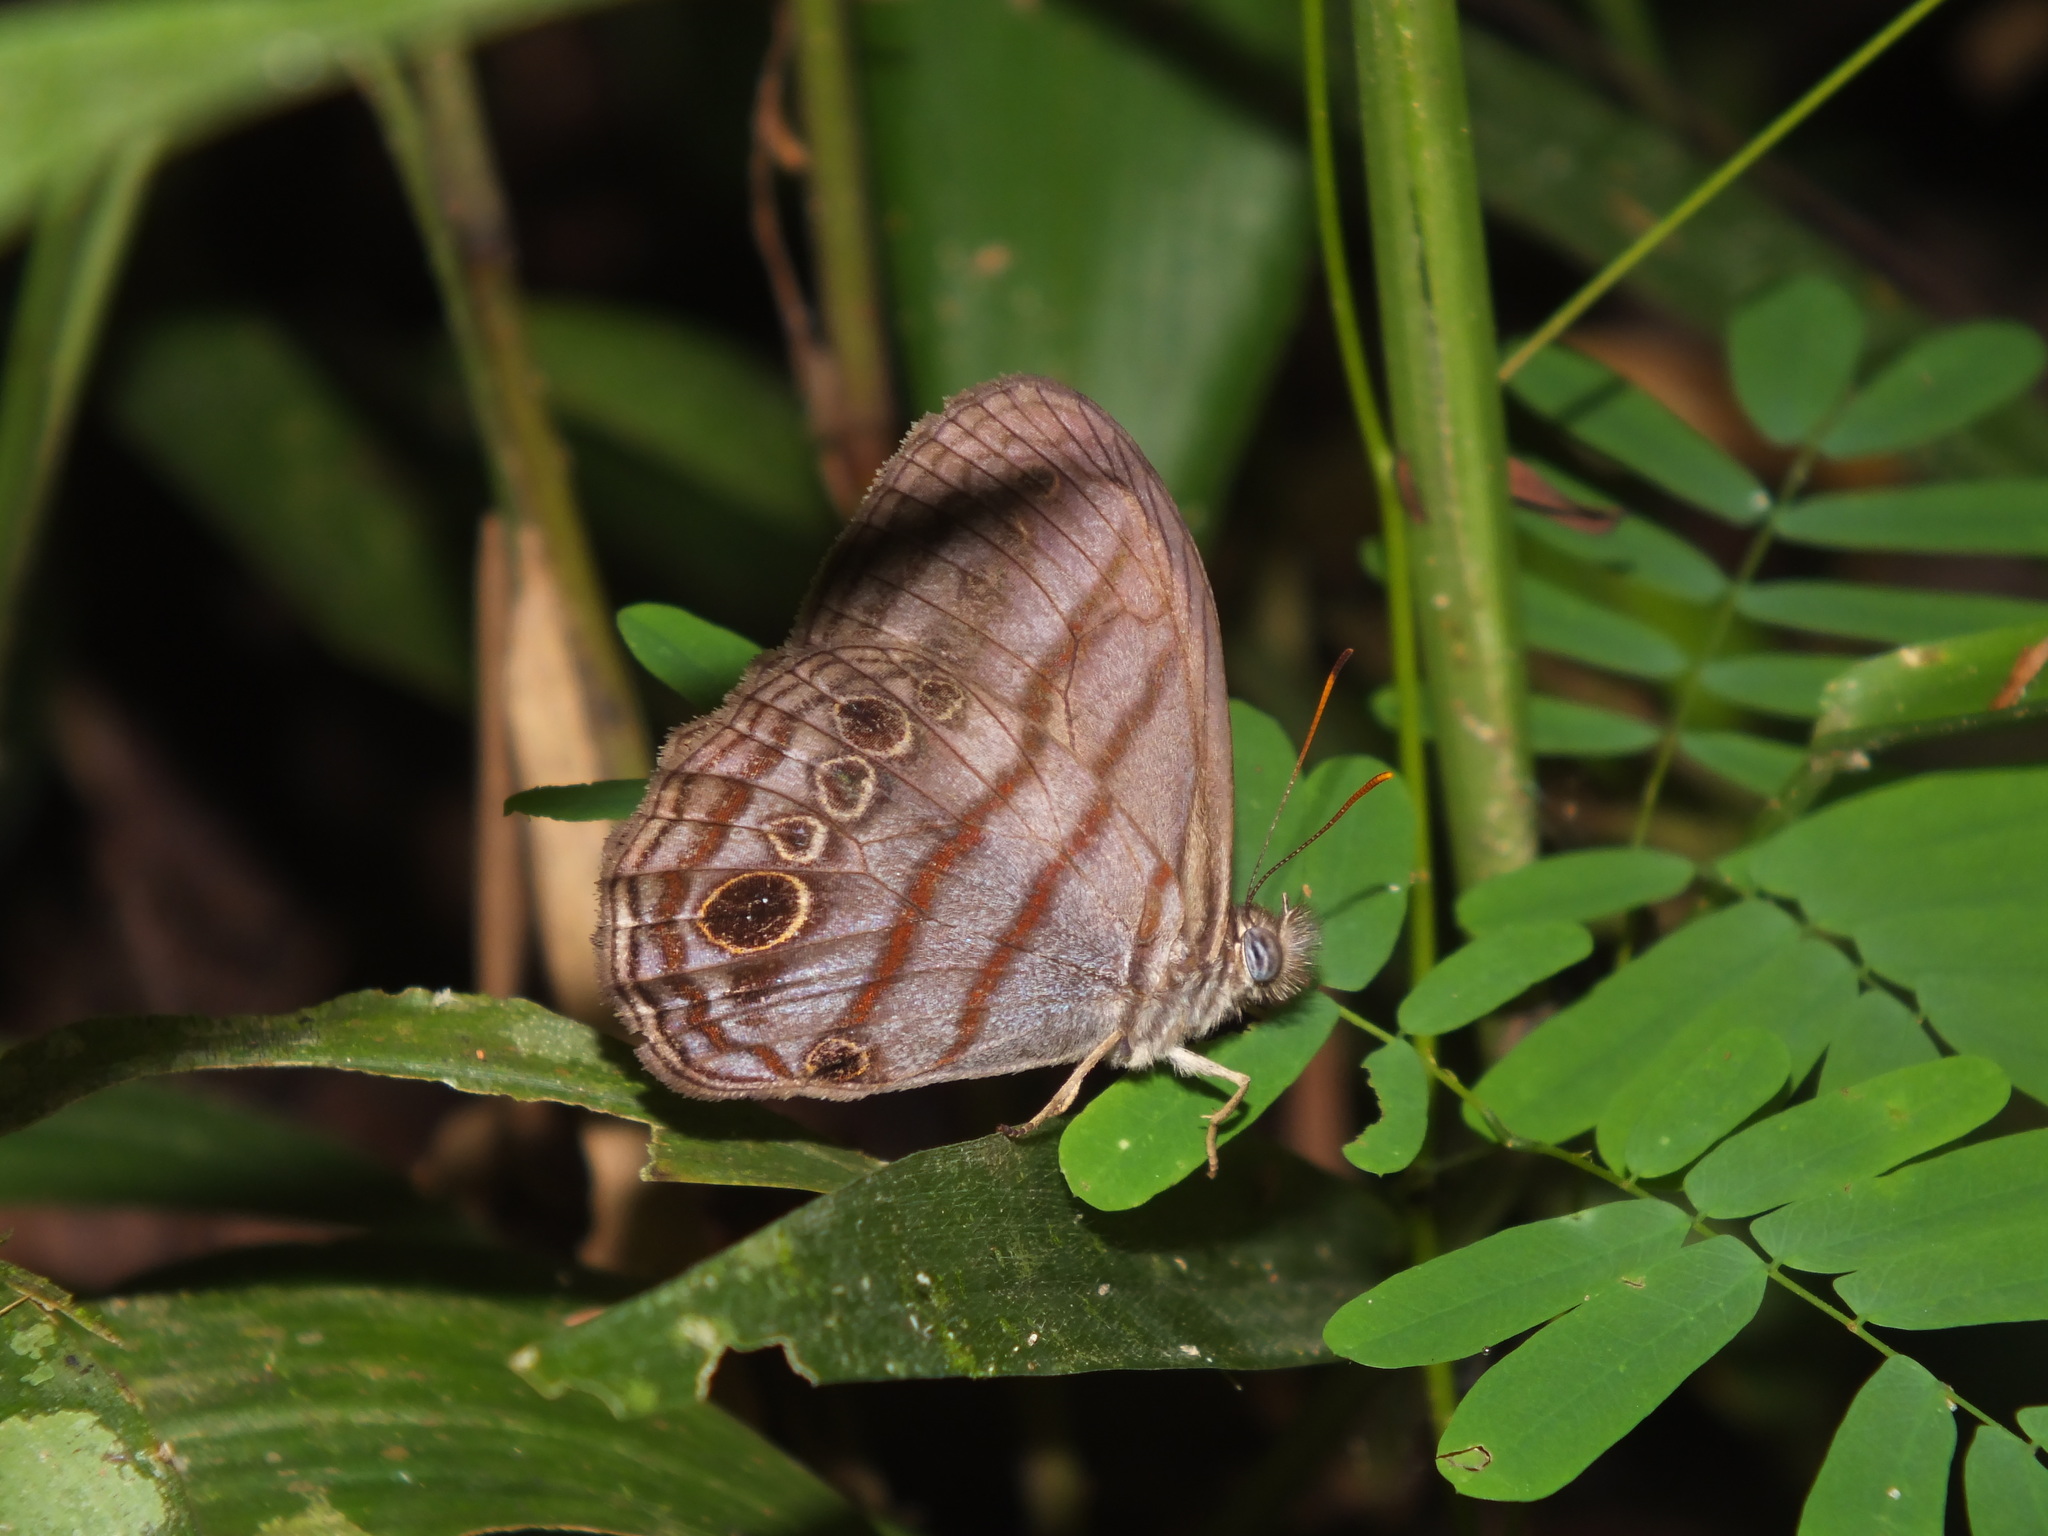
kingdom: Animalia
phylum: Arthropoda
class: Insecta
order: Lepidoptera
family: Nymphalidae
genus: Magneuptychia
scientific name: Magneuptychia libye
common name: Blue-gray satyr
